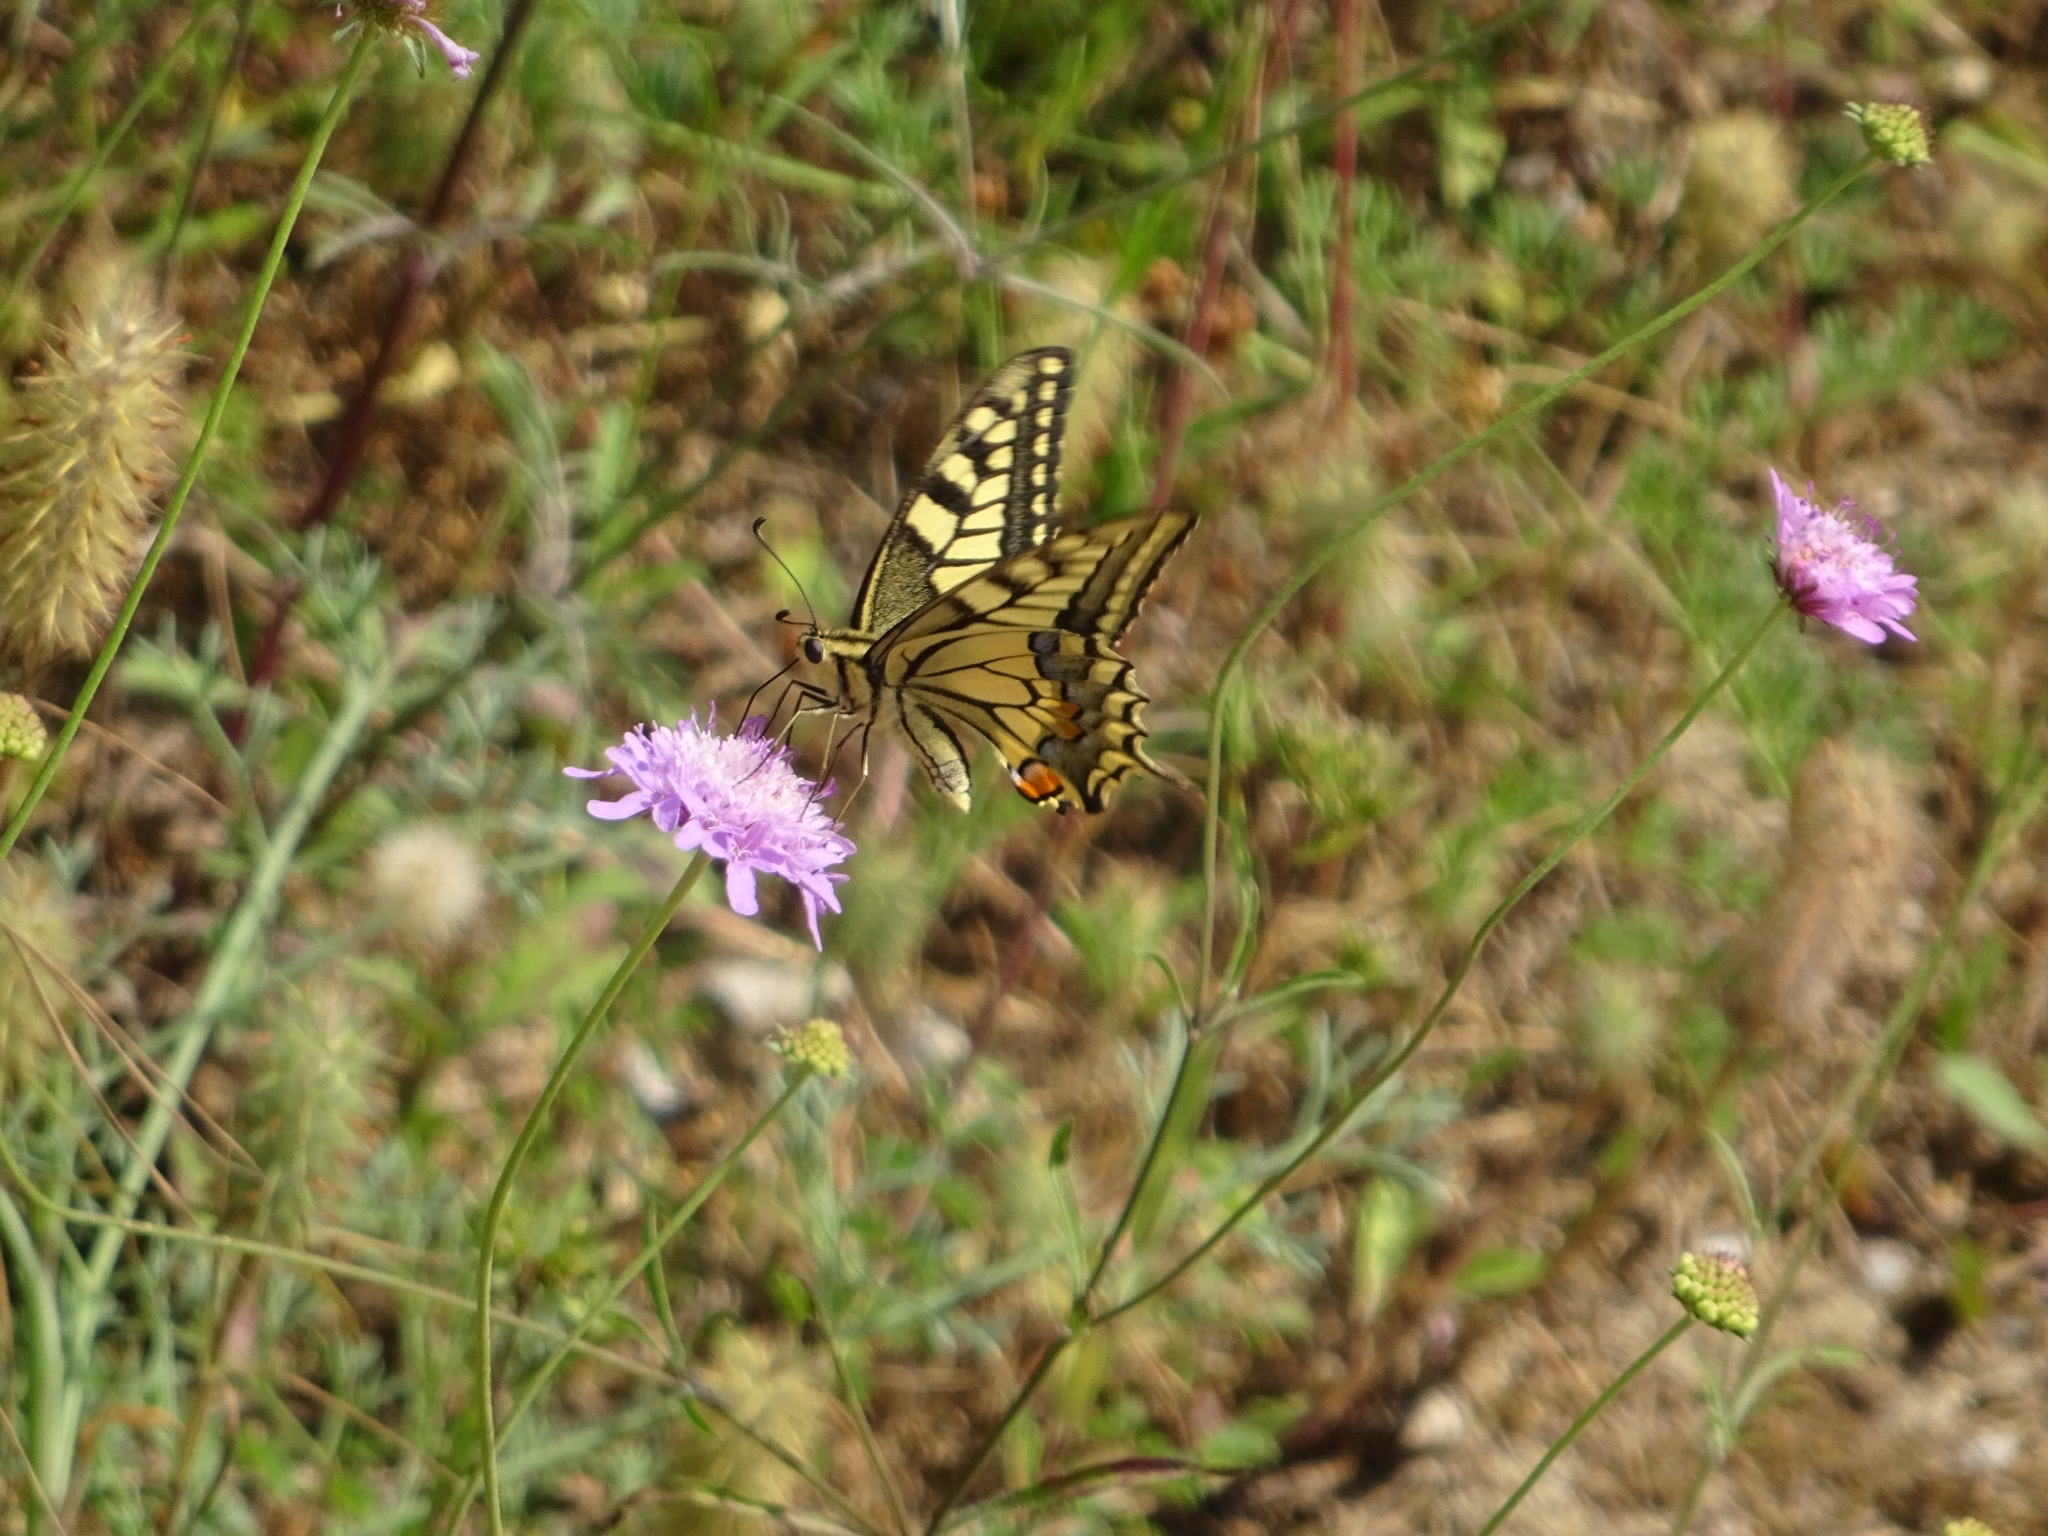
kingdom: Animalia
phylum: Arthropoda
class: Insecta
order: Lepidoptera
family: Papilionidae
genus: Papilio
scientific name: Papilio machaon
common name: Swallowtail
